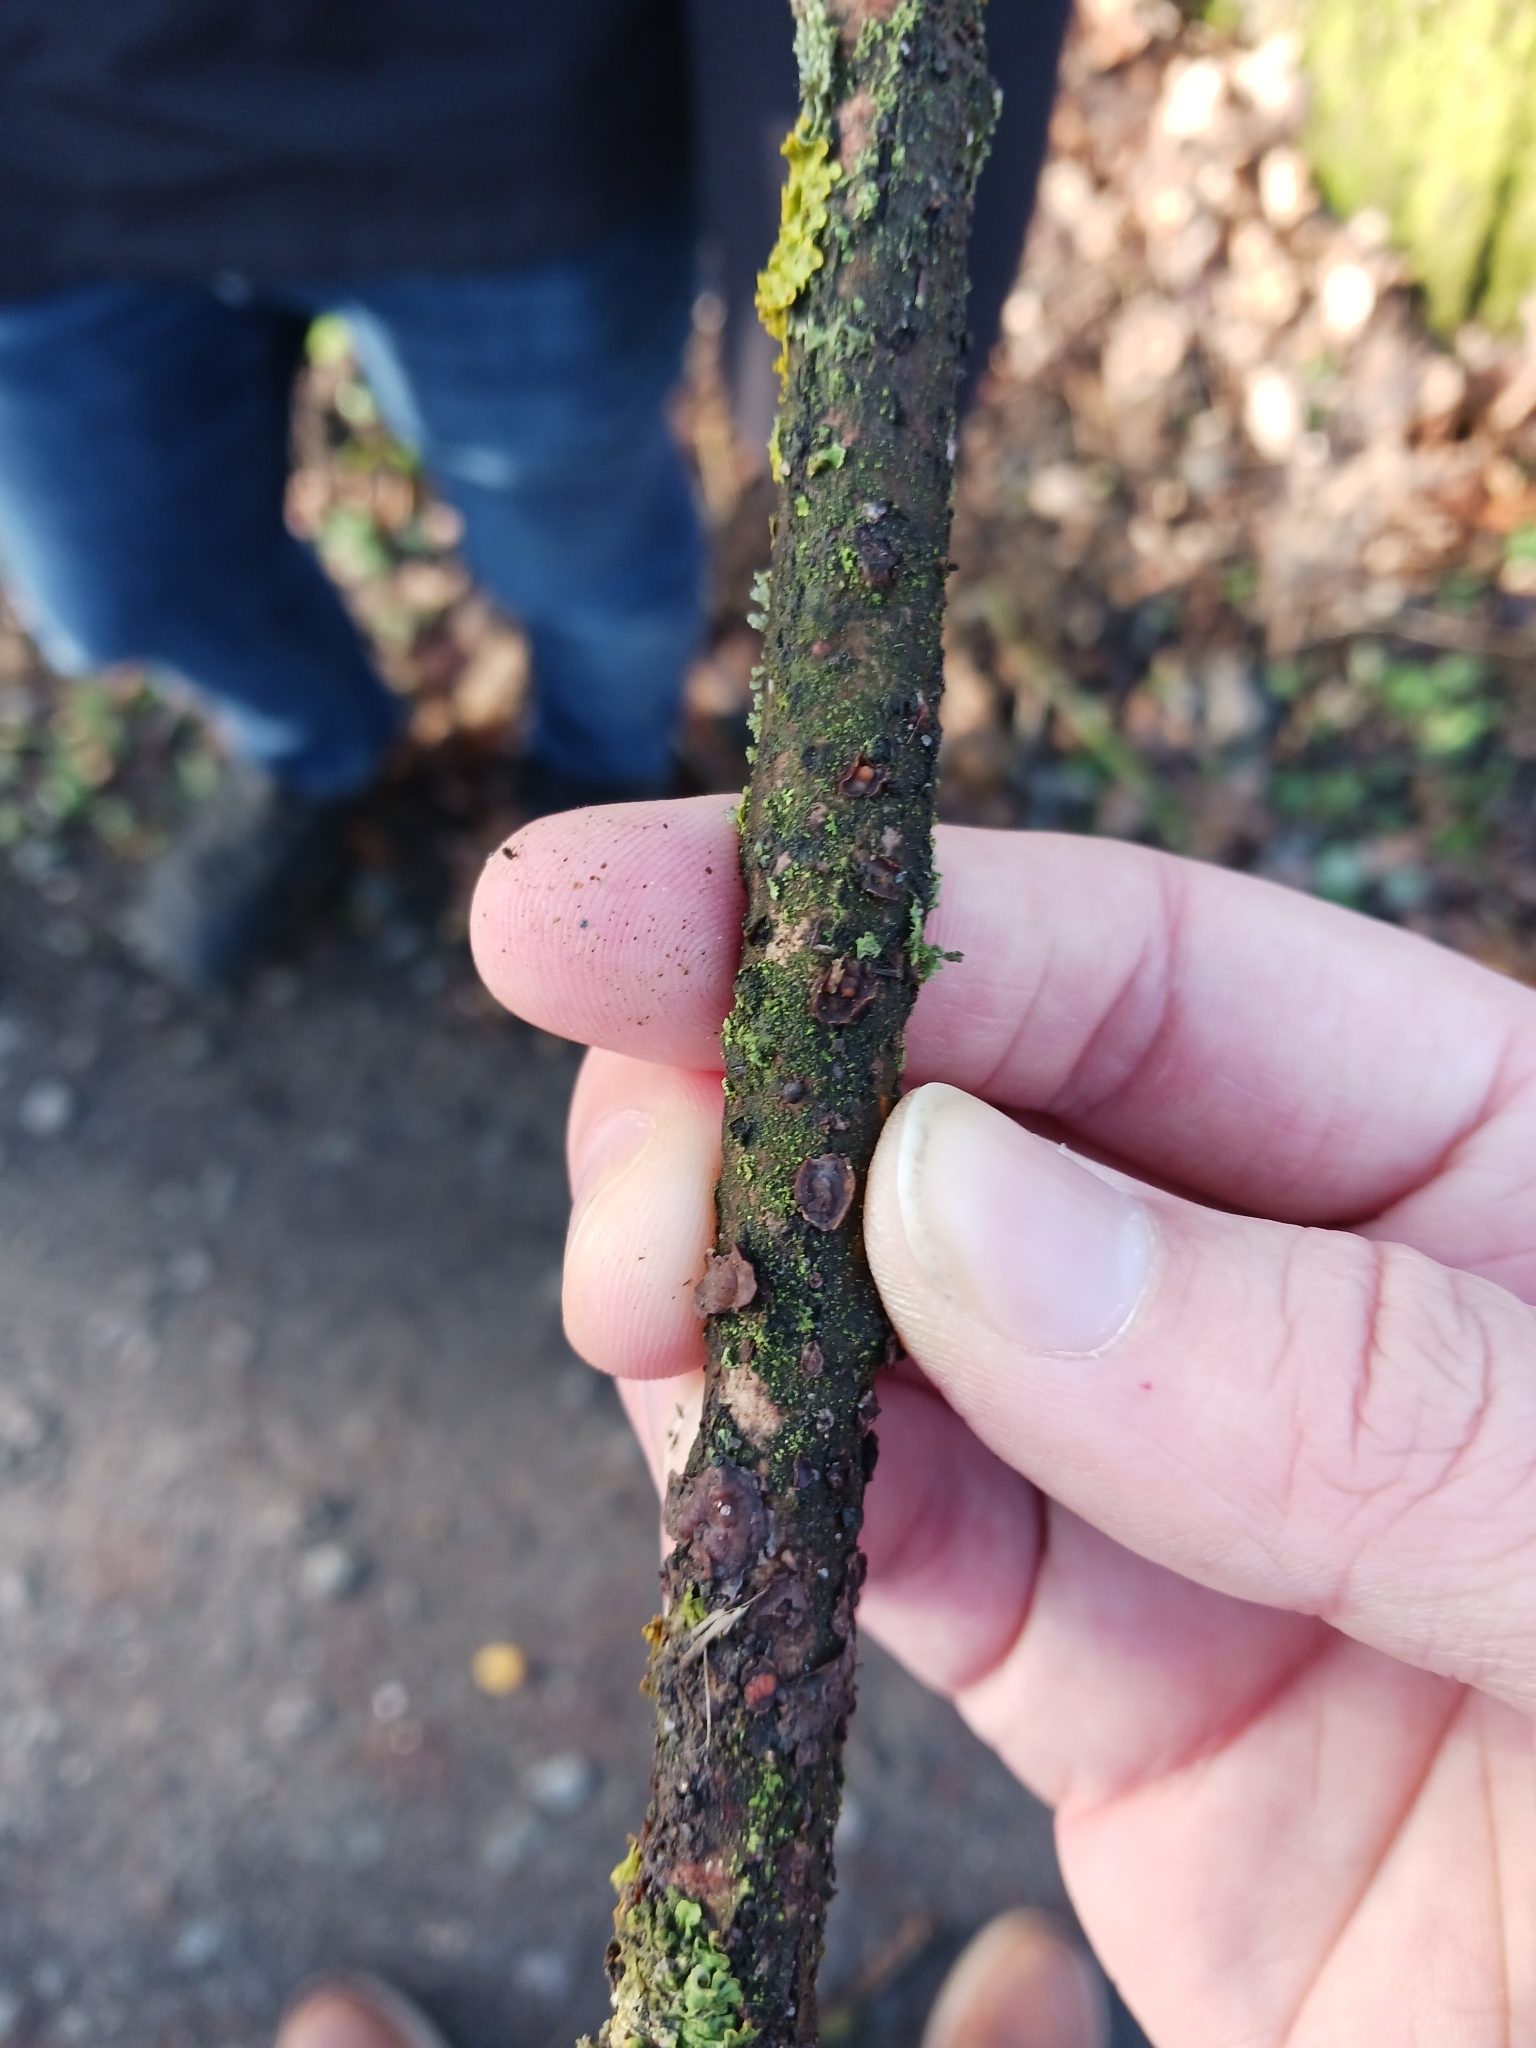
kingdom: Fungi
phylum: Basidiomycota
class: Tremellomycetes
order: Tremellales
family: Tremellaceae
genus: Tremella
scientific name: Tremella mesenterica
